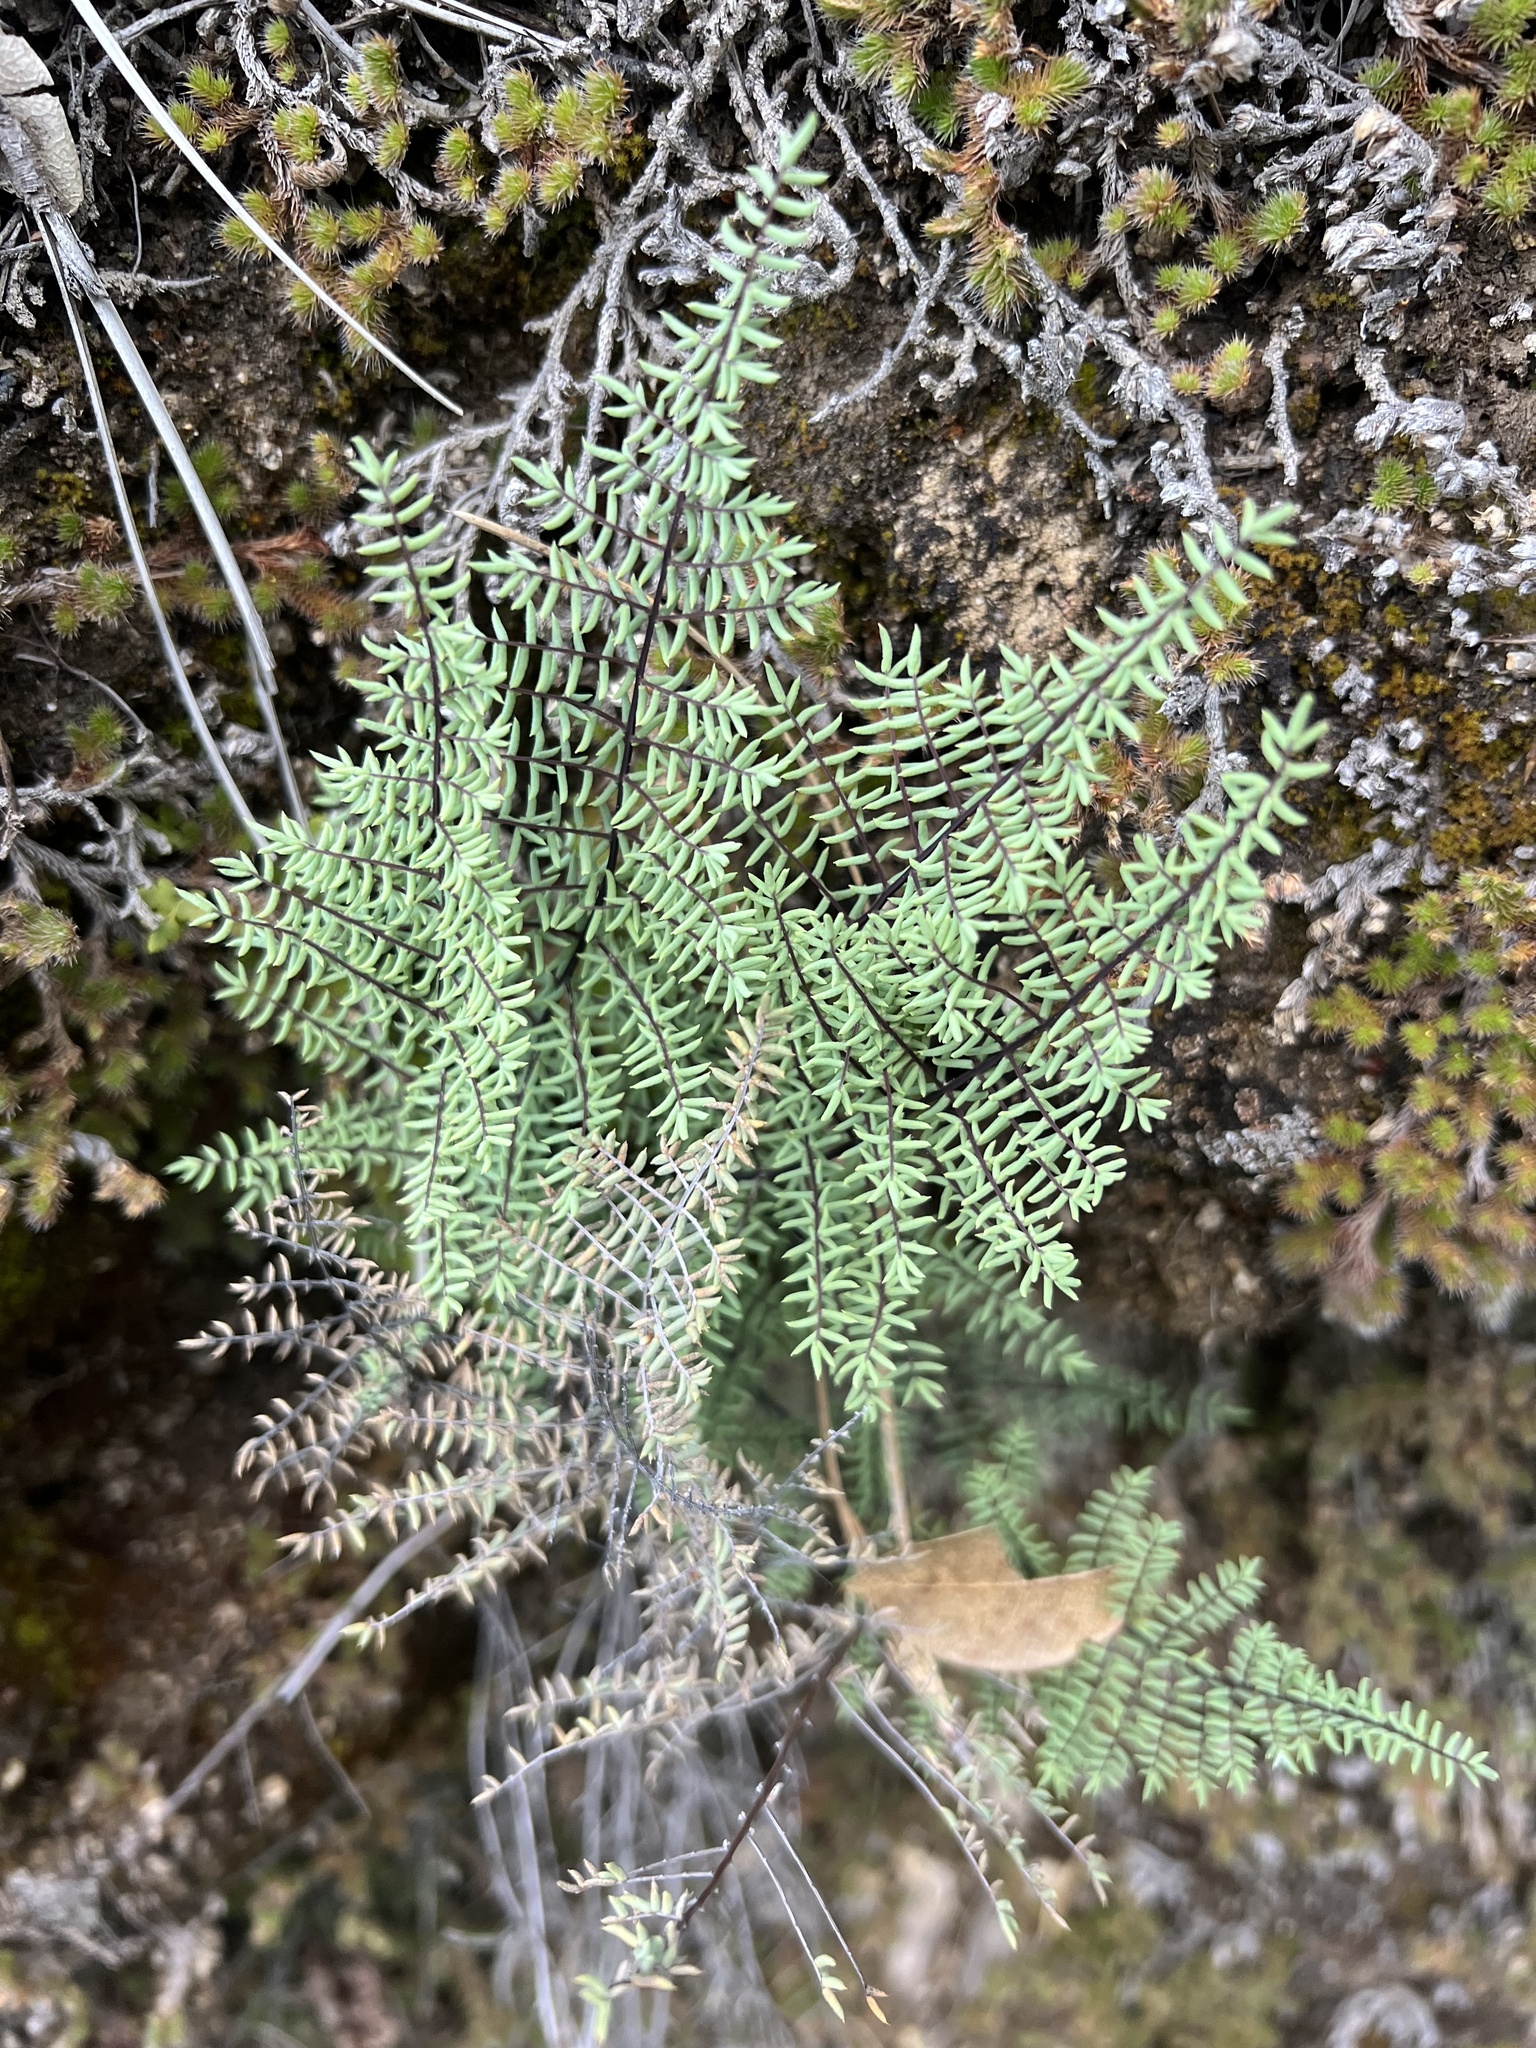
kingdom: Plantae
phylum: Tracheophyta
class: Polypodiopsida
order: Polypodiales
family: Pteridaceae
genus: Pellaea
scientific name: Pellaea mucronata
